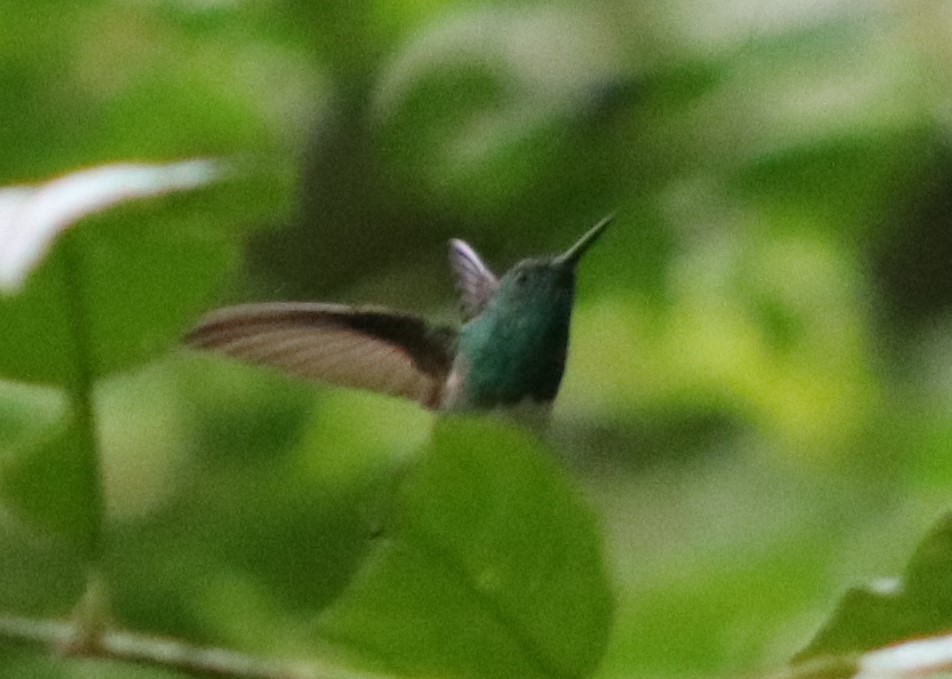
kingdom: Animalia
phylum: Chordata
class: Aves
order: Apodiformes
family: Trochilidae
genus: Saucerottia
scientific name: Saucerottia edward
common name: Snowy-bellied hummingbird
